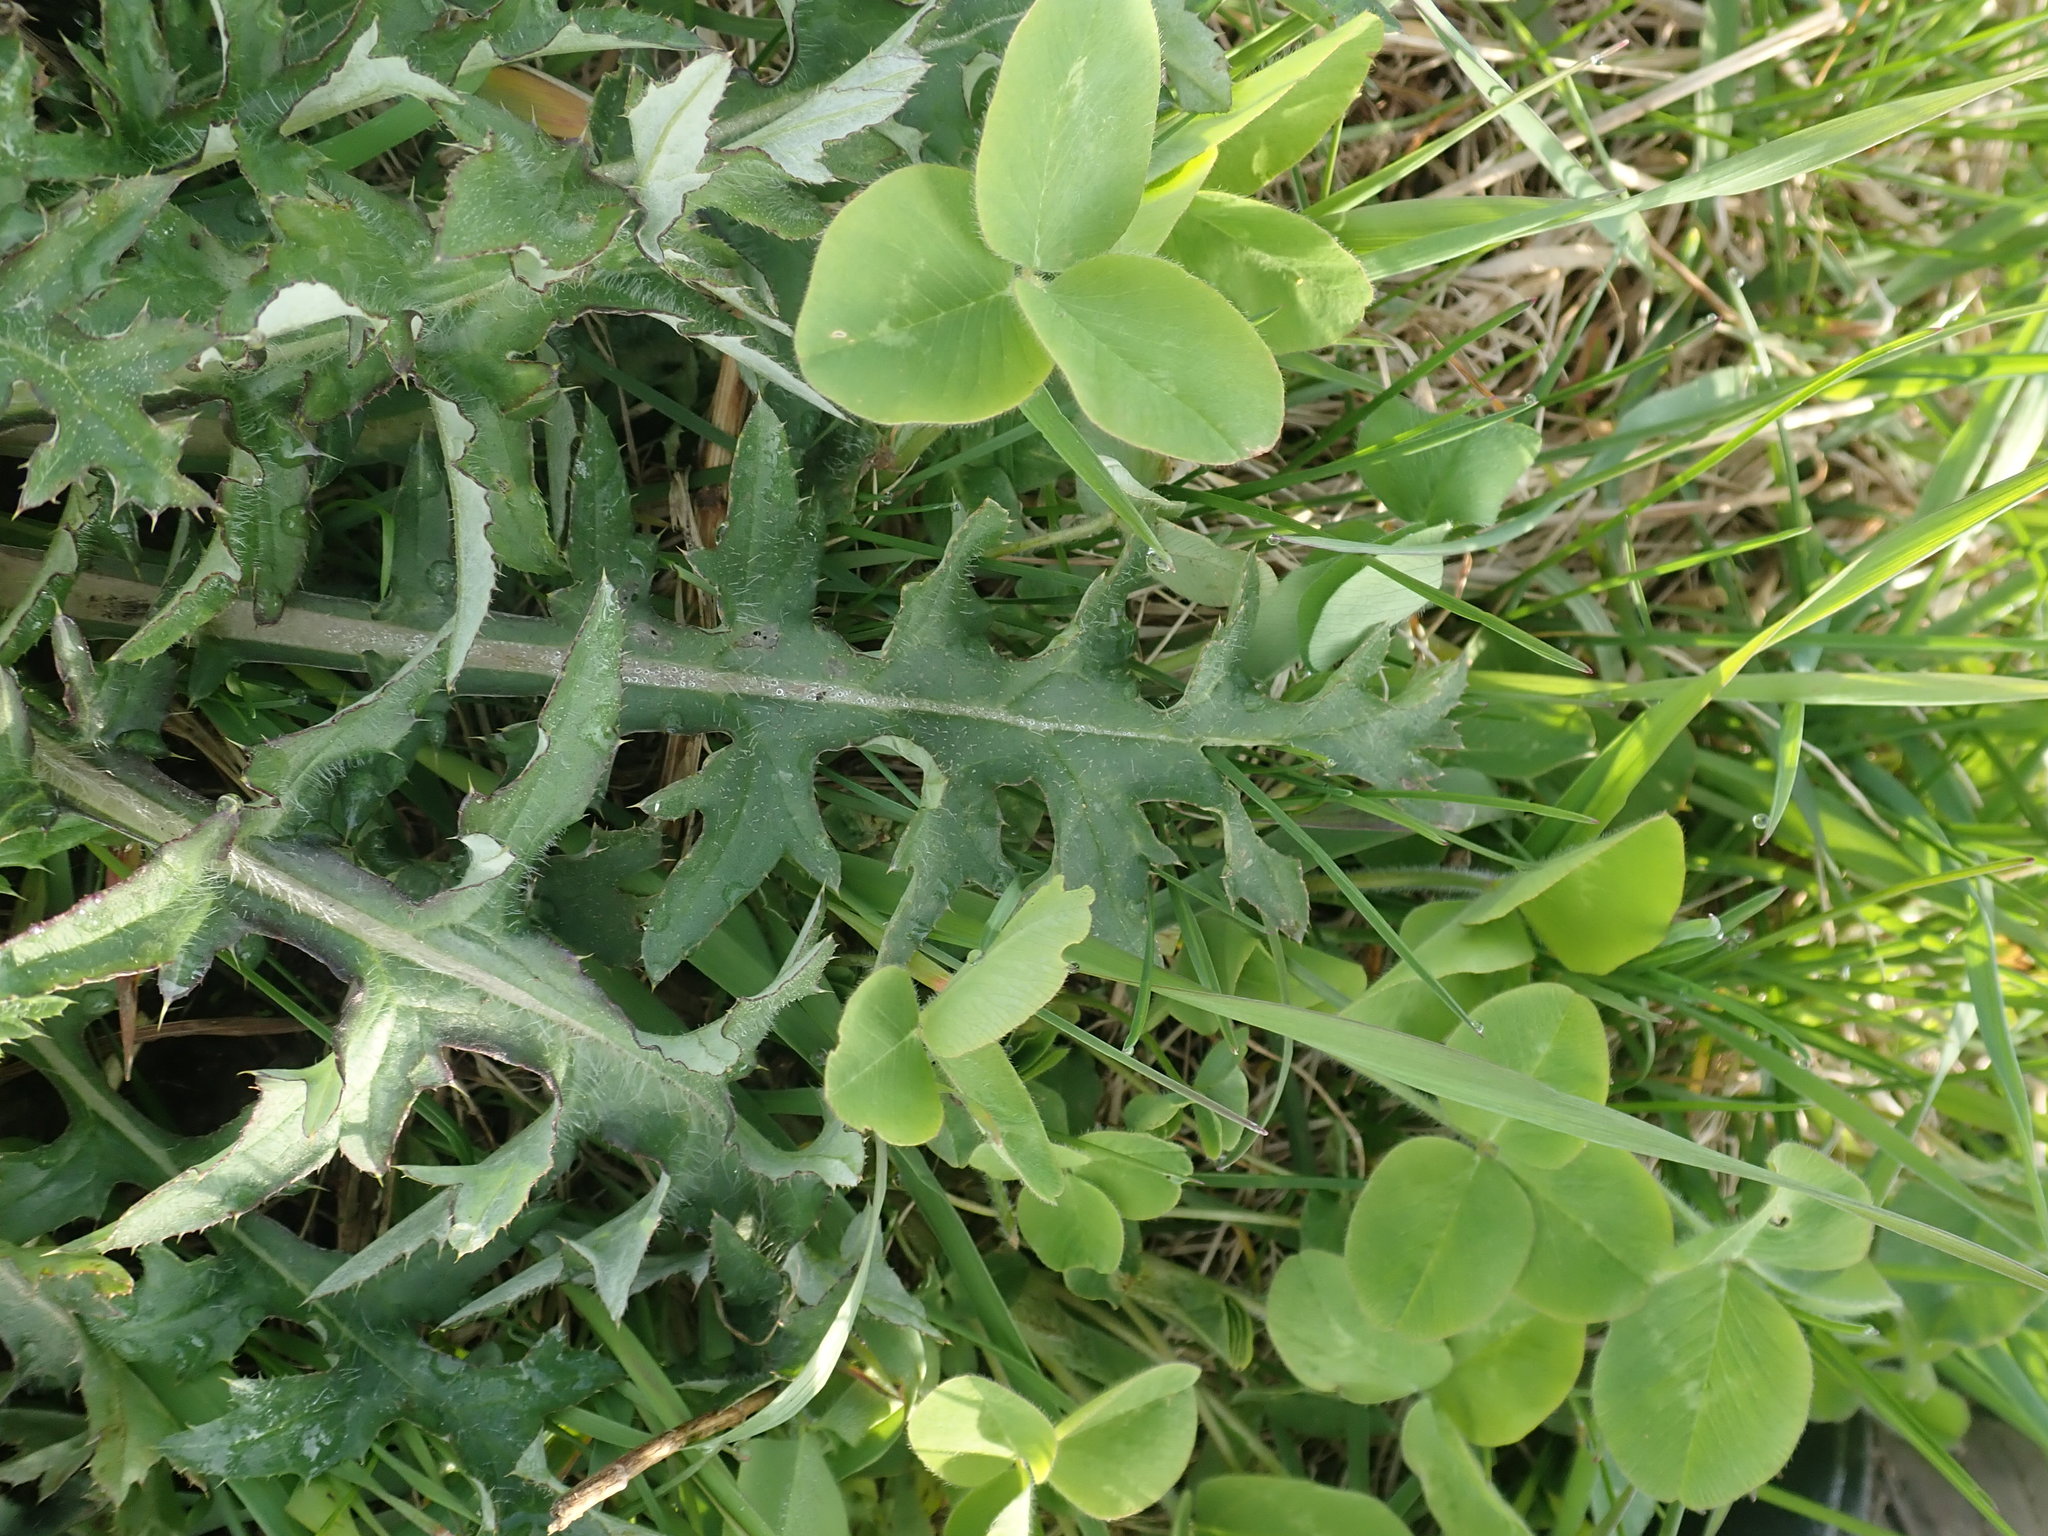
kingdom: Plantae
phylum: Tracheophyta
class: Magnoliopsida
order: Asterales
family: Asteraceae
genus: Cirsium
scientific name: Cirsium discolor
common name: Field thistle
